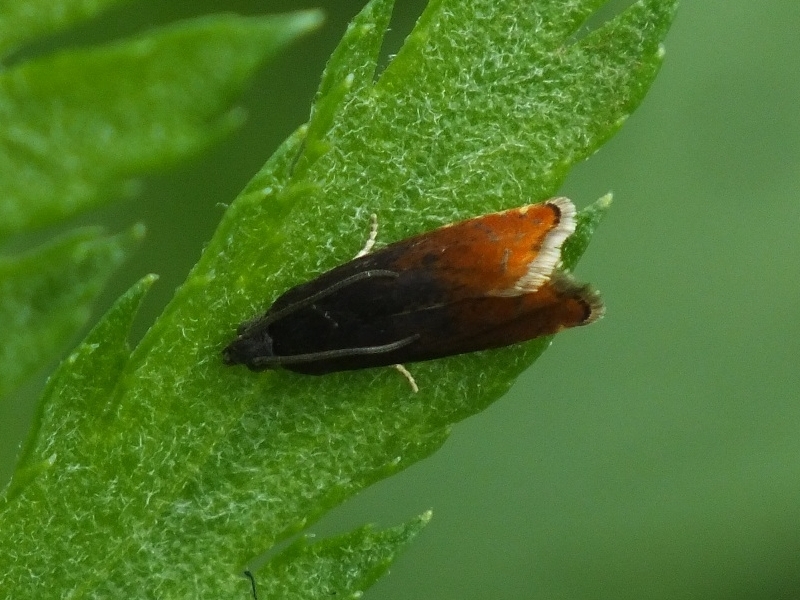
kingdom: Animalia
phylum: Arthropoda
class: Insecta
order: Lepidoptera
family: Tortricidae
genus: Pammene
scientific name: Pammene rhediella
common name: Fruitlet-mining tortrix
